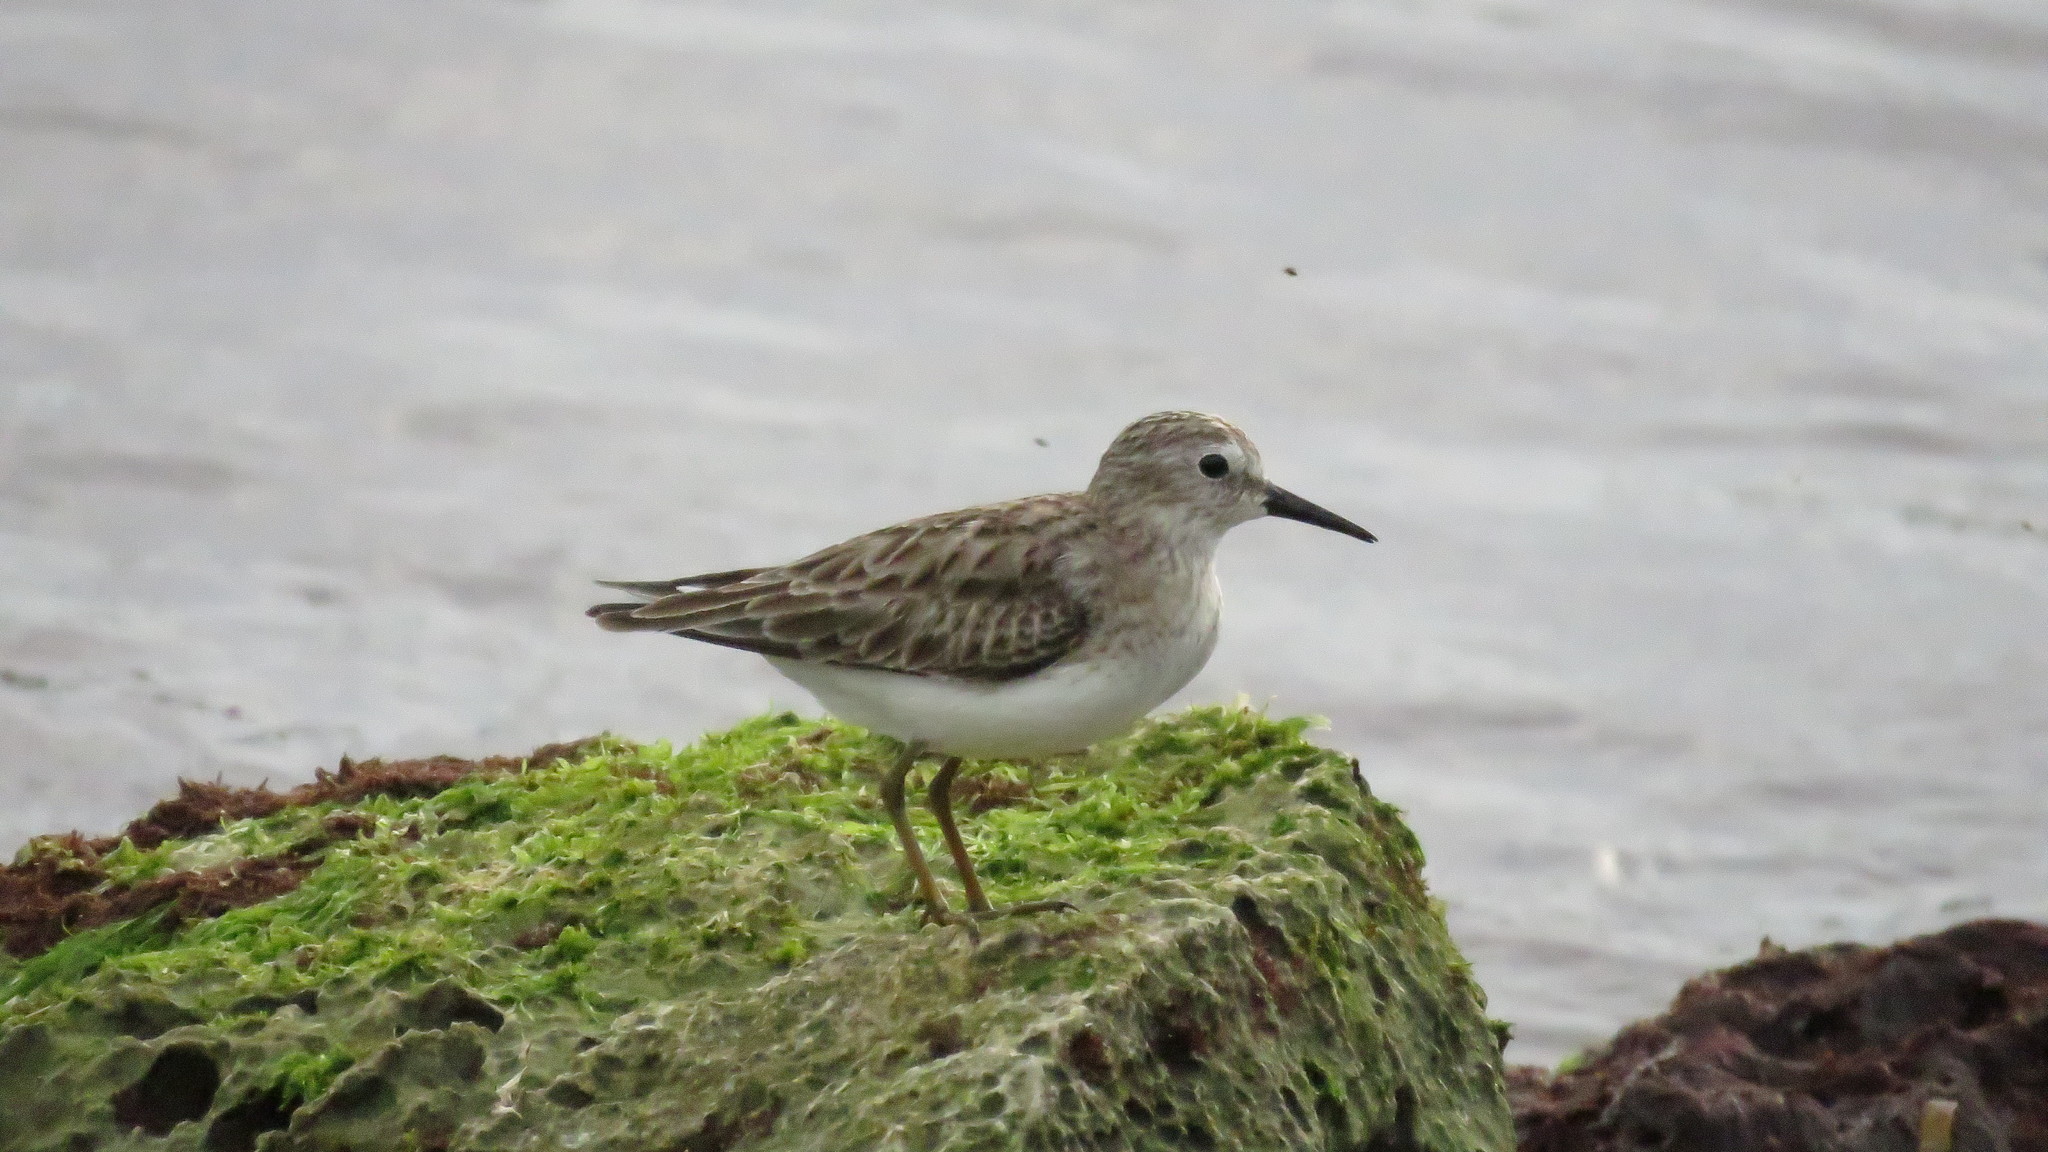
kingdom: Animalia
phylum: Chordata
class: Aves
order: Charadriiformes
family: Scolopacidae
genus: Calidris
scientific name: Calidris minutilla
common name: Least sandpiper
